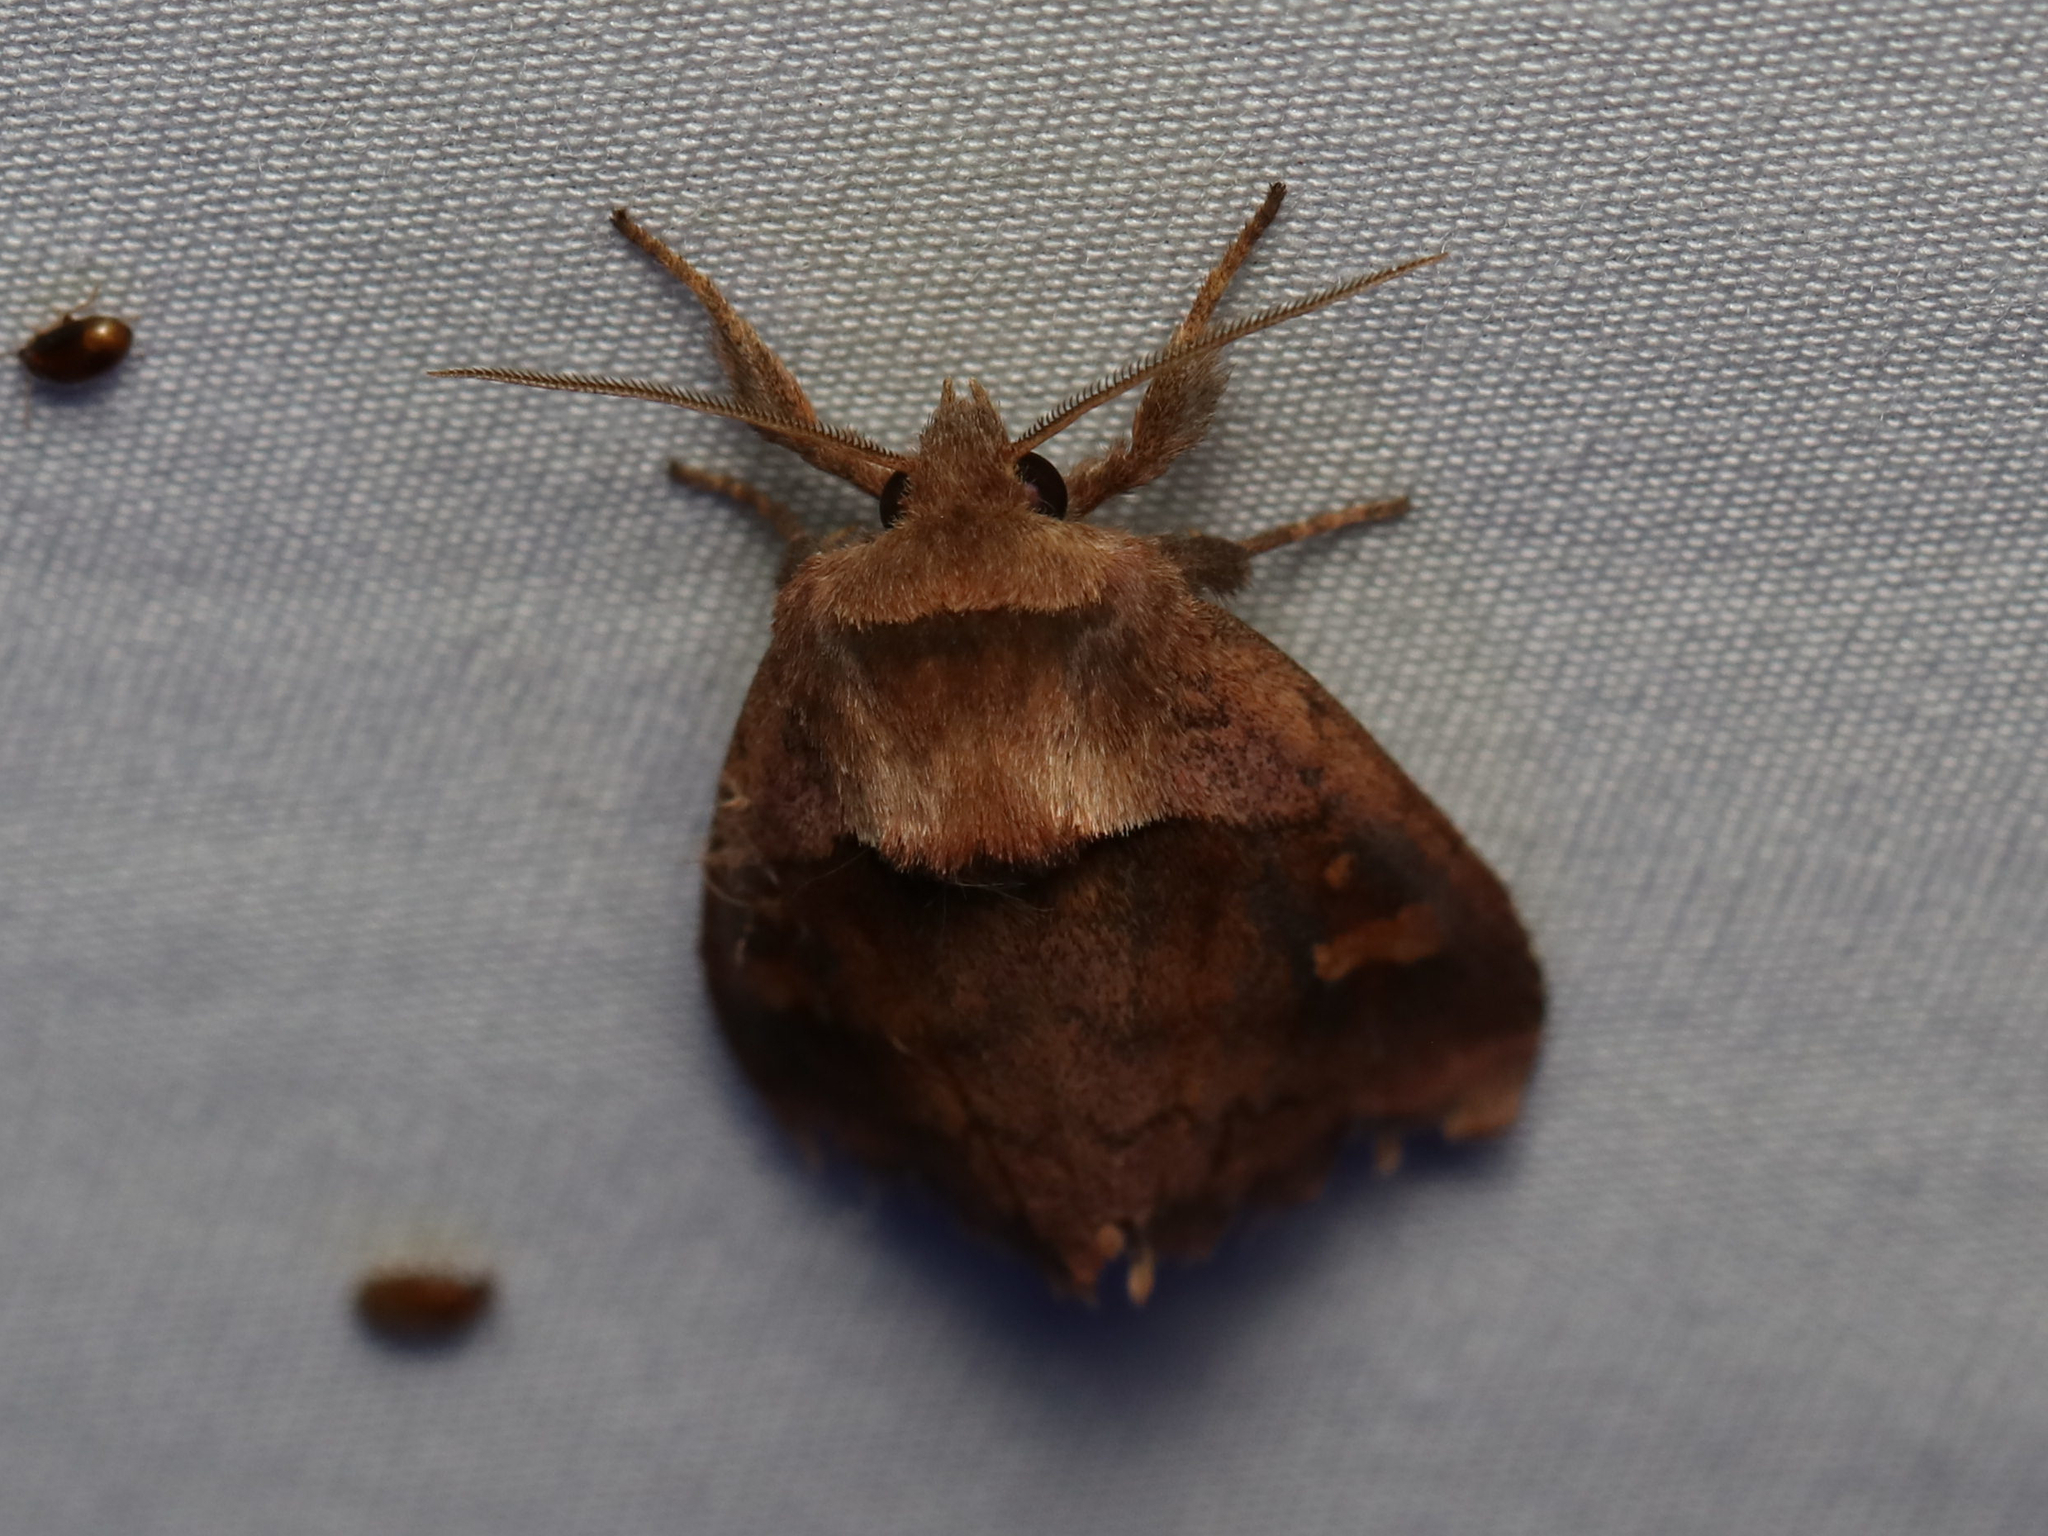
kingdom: Animalia
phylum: Arthropoda
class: Insecta
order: Lepidoptera
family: Noctuidae
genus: Bellura
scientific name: Bellura densa
